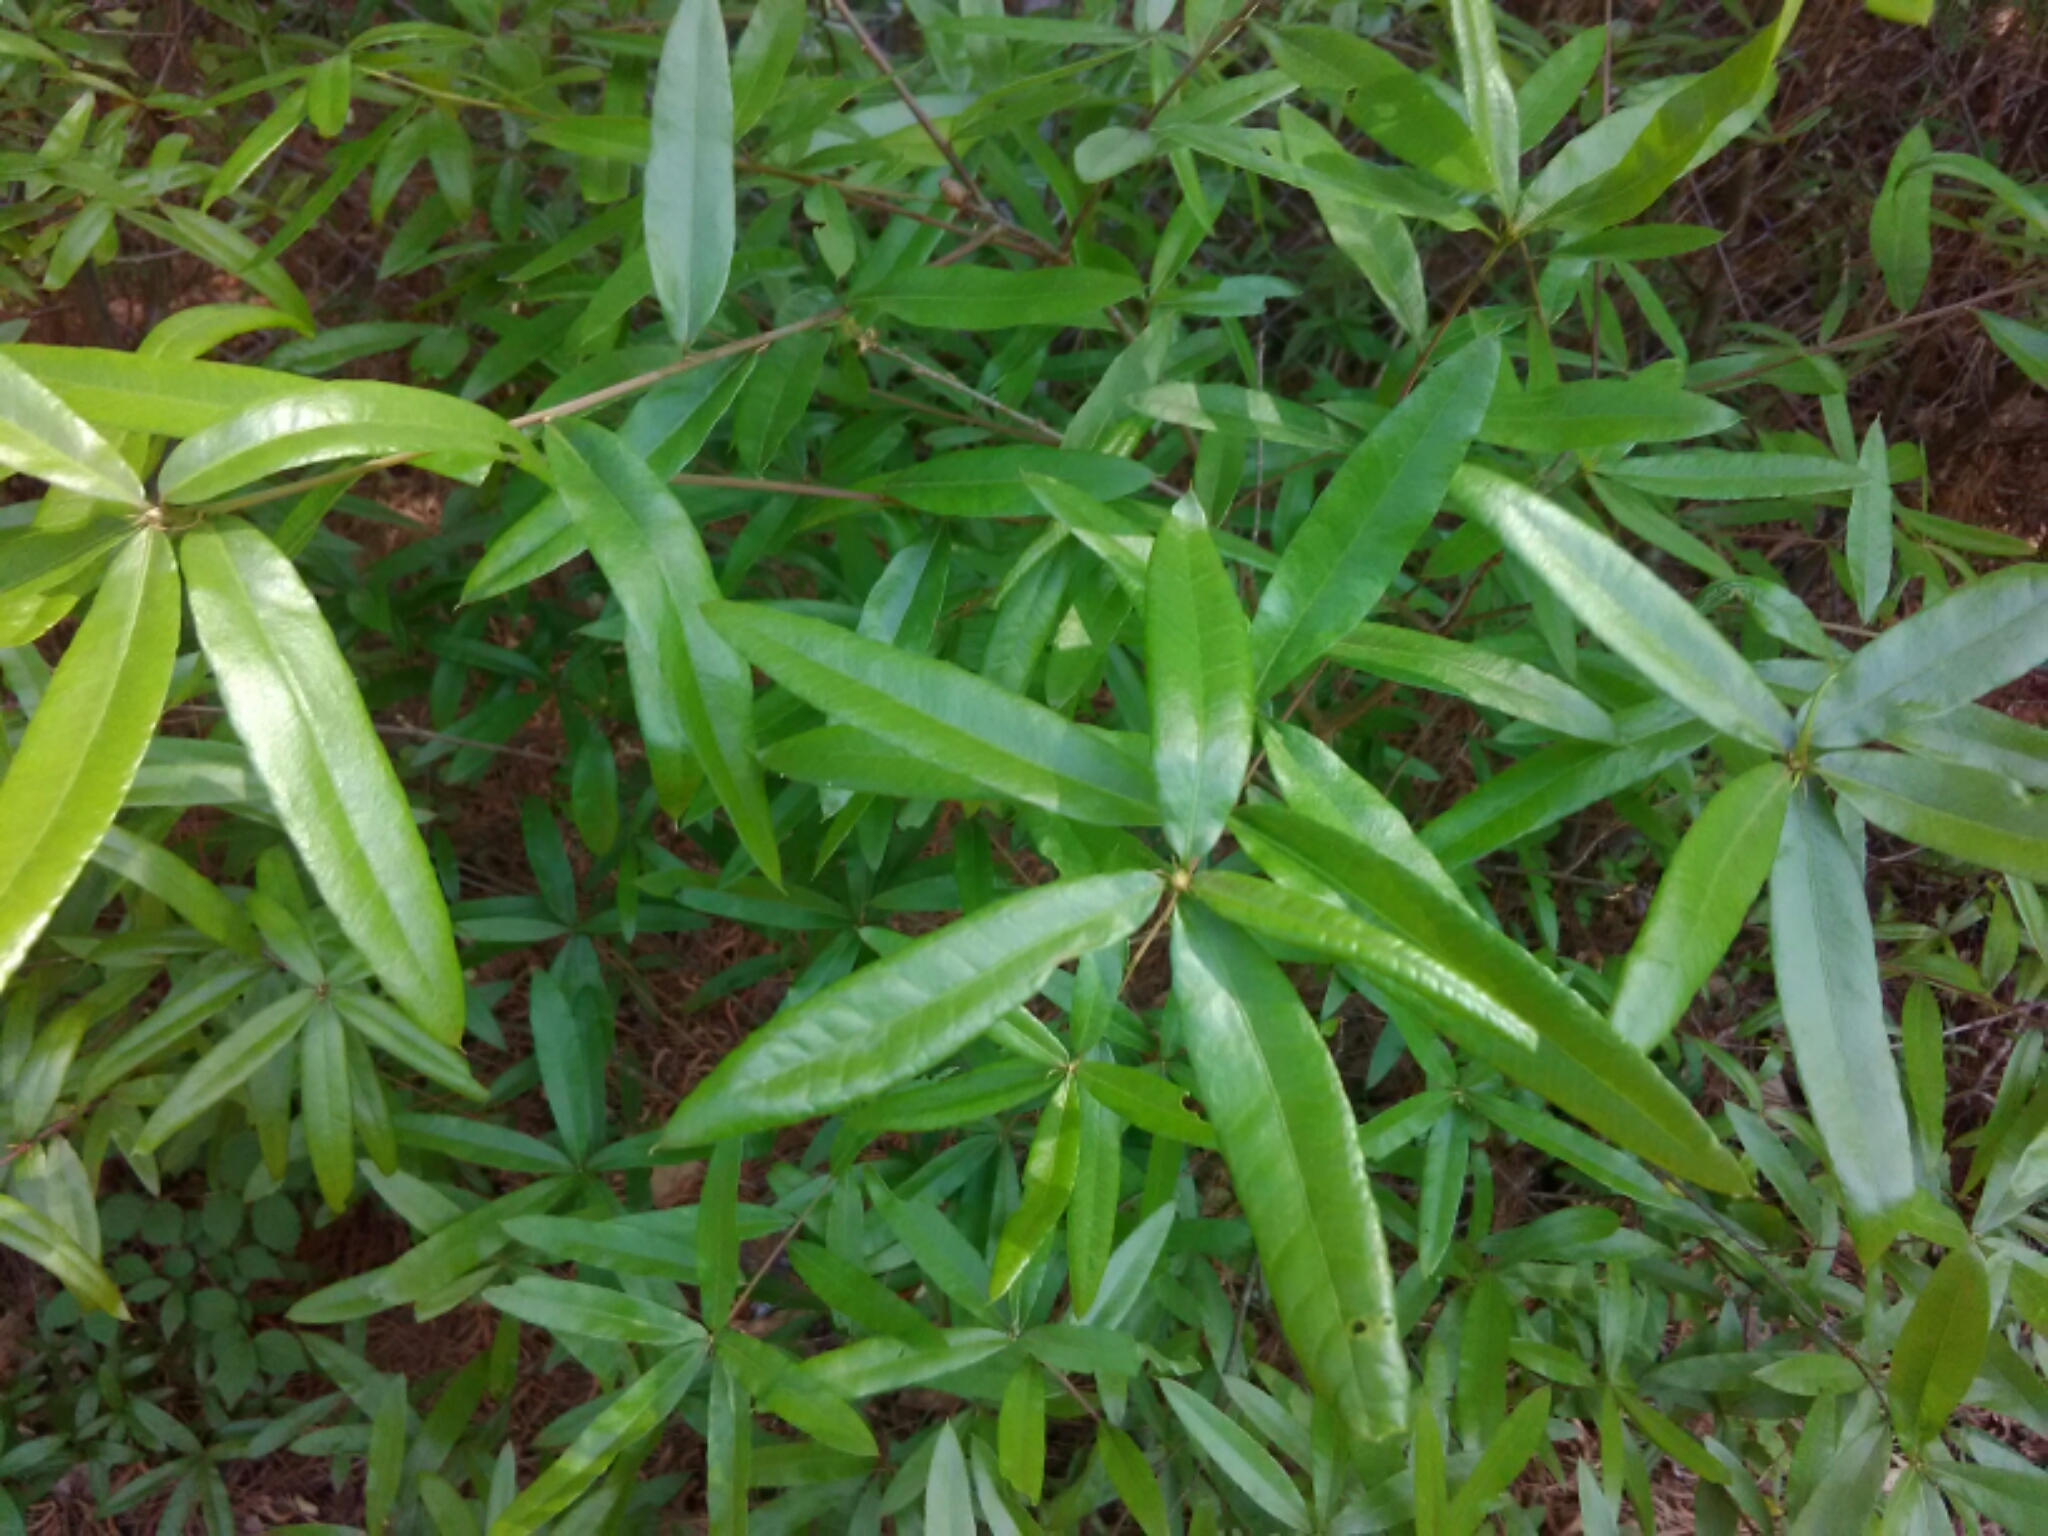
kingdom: Plantae
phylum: Tracheophyta
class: Magnoliopsida
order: Fagales
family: Fagaceae
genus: Quercus
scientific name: Quercus phellos
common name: Willow oak
